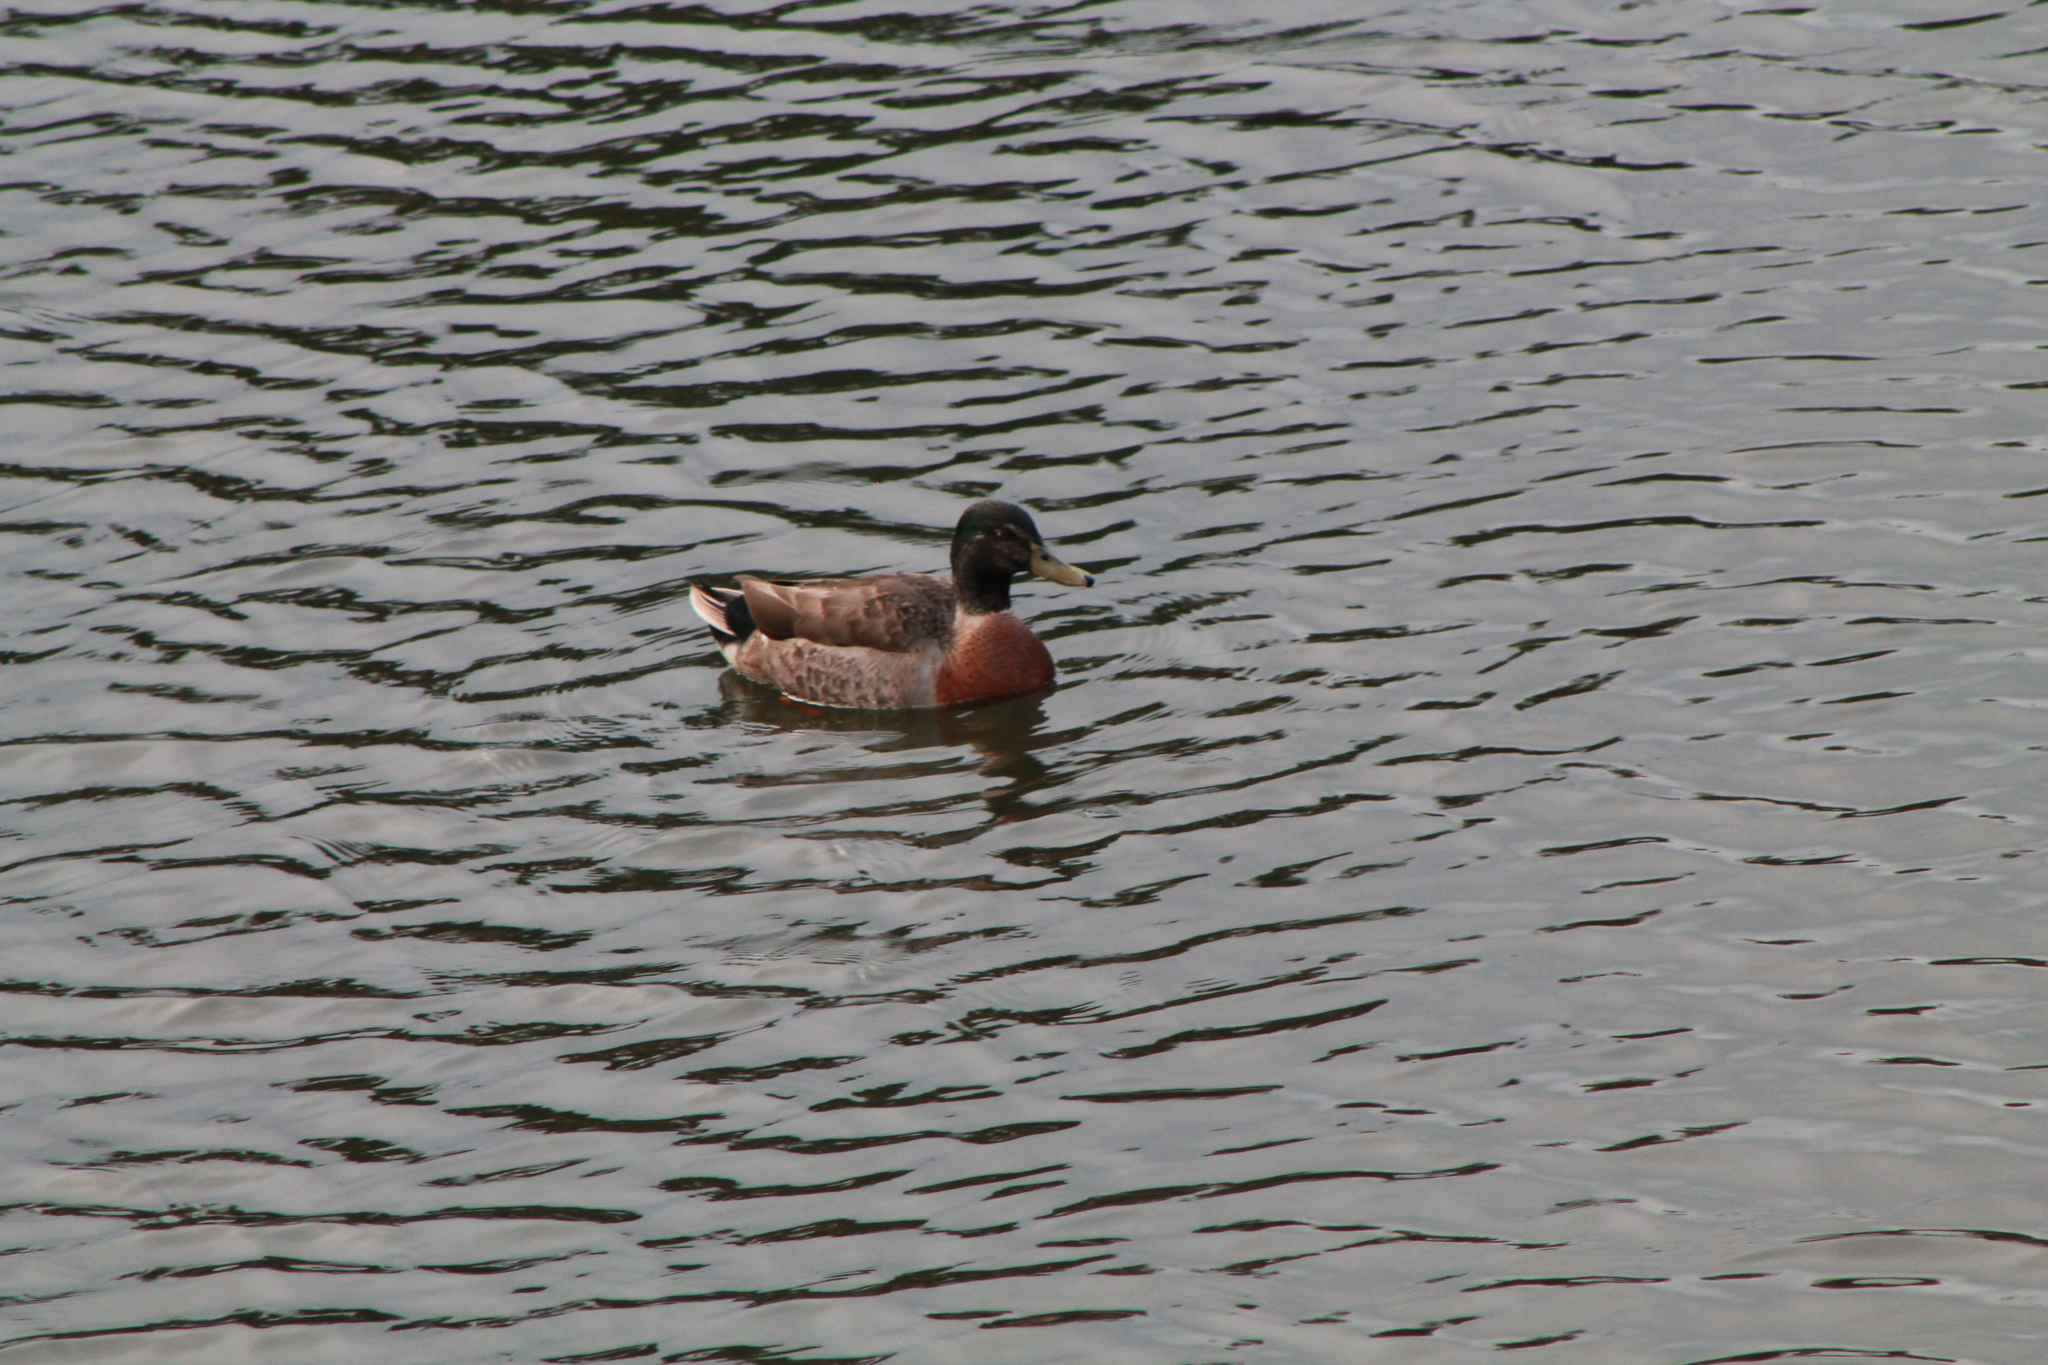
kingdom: Animalia
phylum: Chordata
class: Aves
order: Anseriformes
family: Anatidae
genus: Anas
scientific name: Anas platyrhynchos
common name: Mallard
